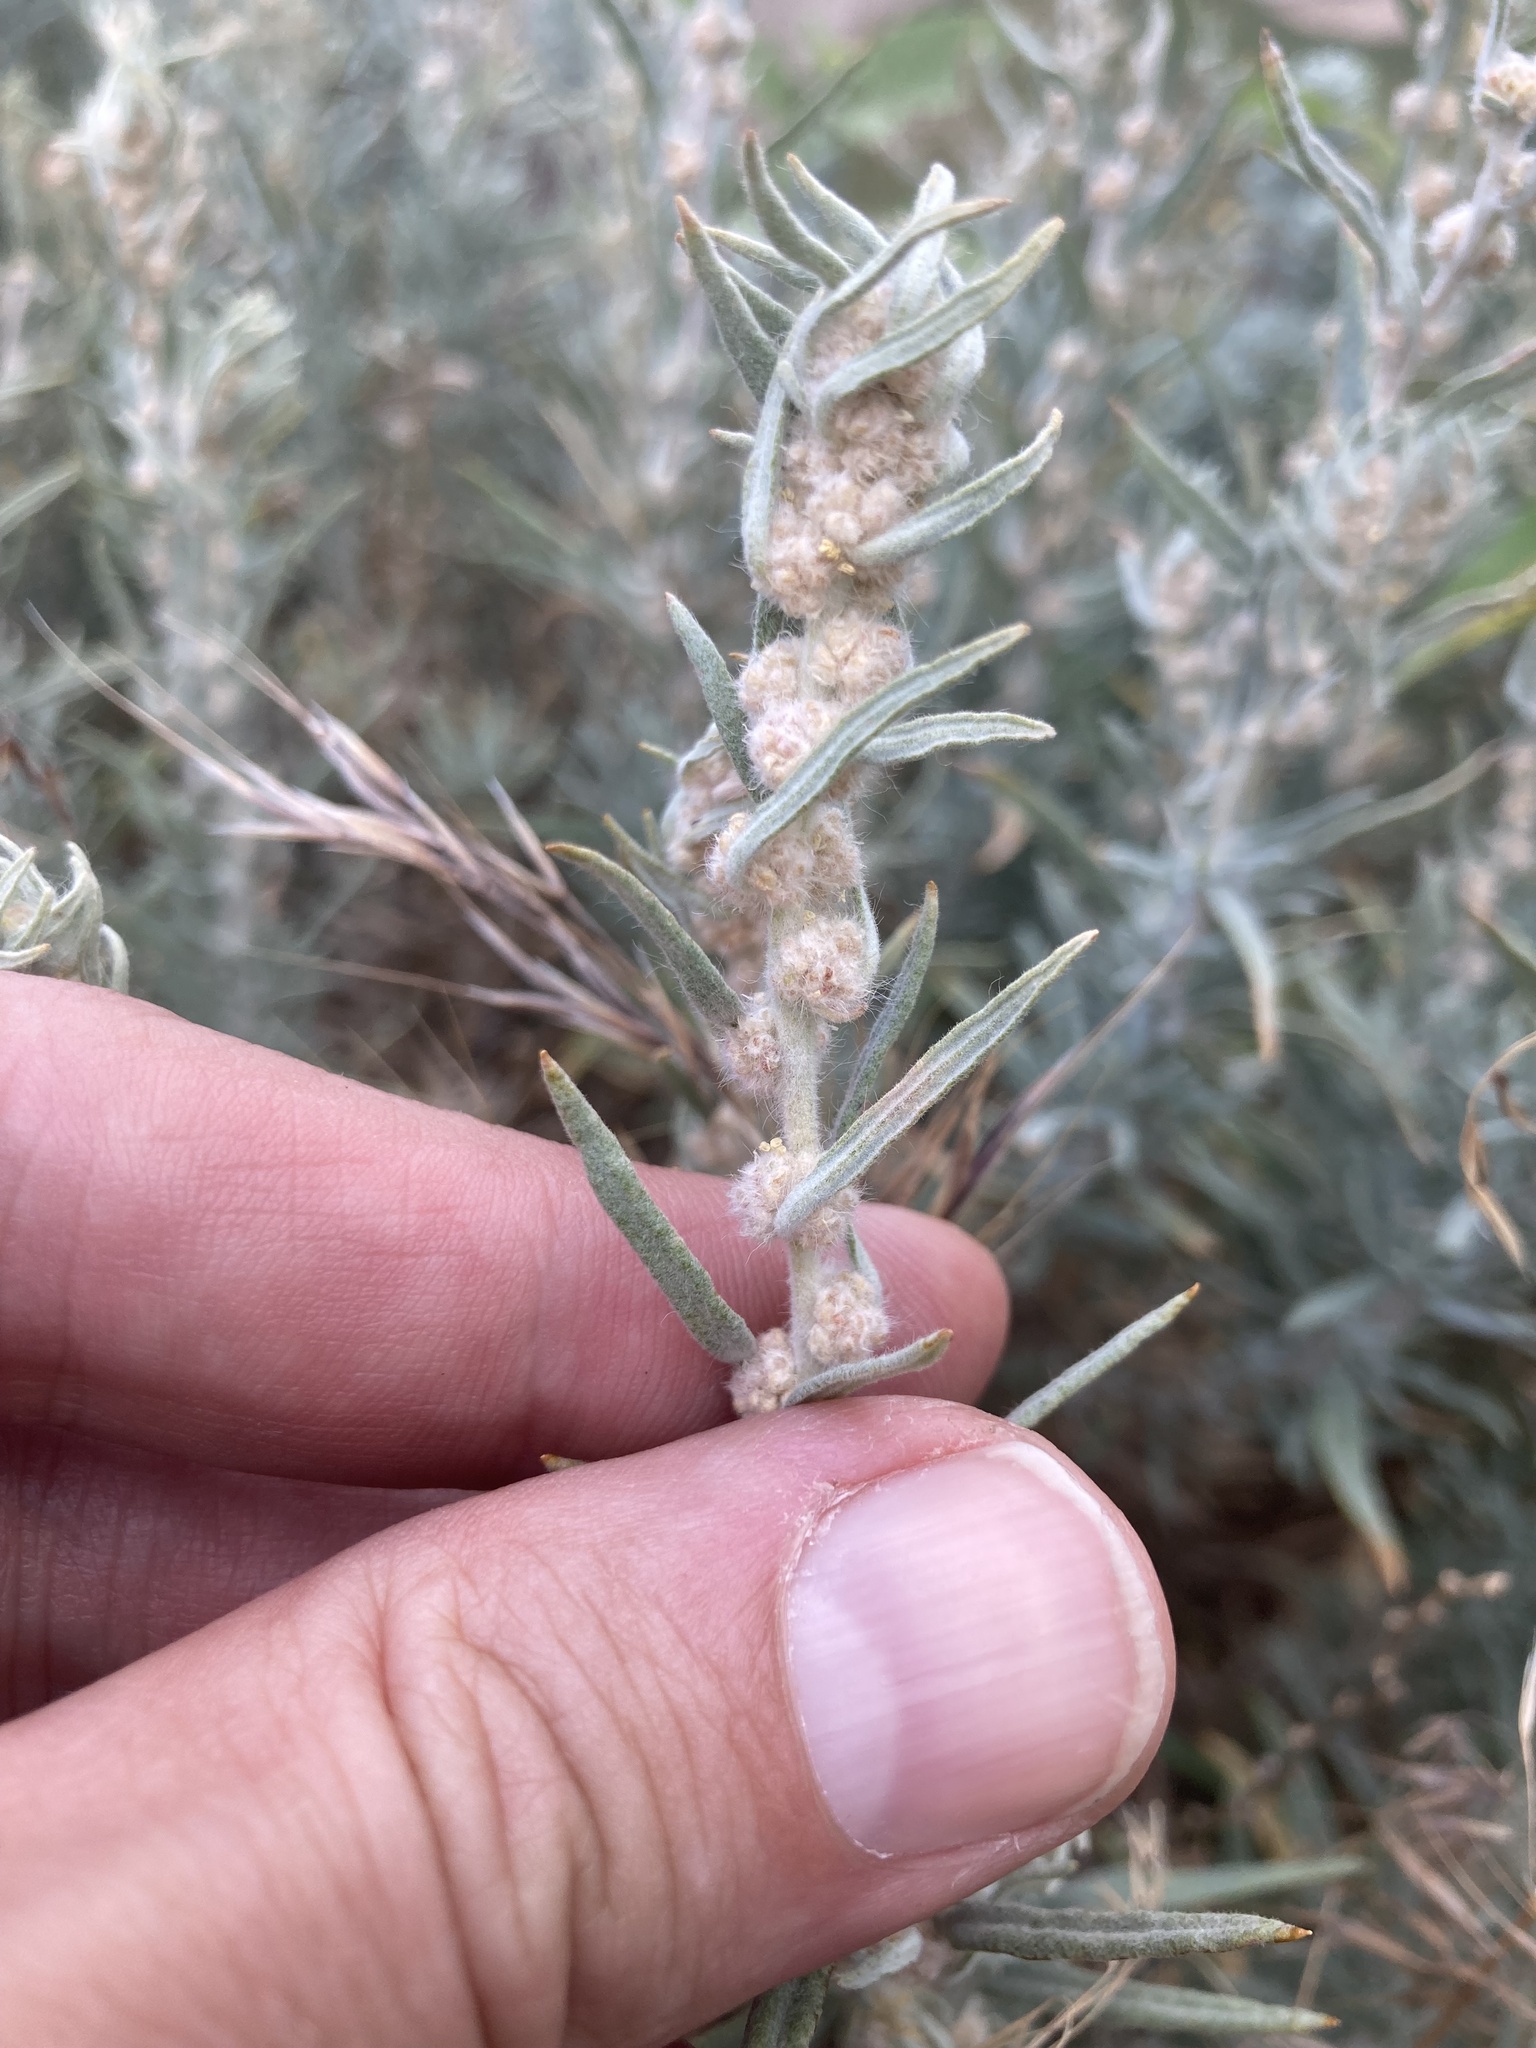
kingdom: Plantae
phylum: Tracheophyta
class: Magnoliopsida
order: Caryophyllales
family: Amaranthaceae
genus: Krascheninnikovia
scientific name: Krascheninnikovia lanata
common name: Winterfat
